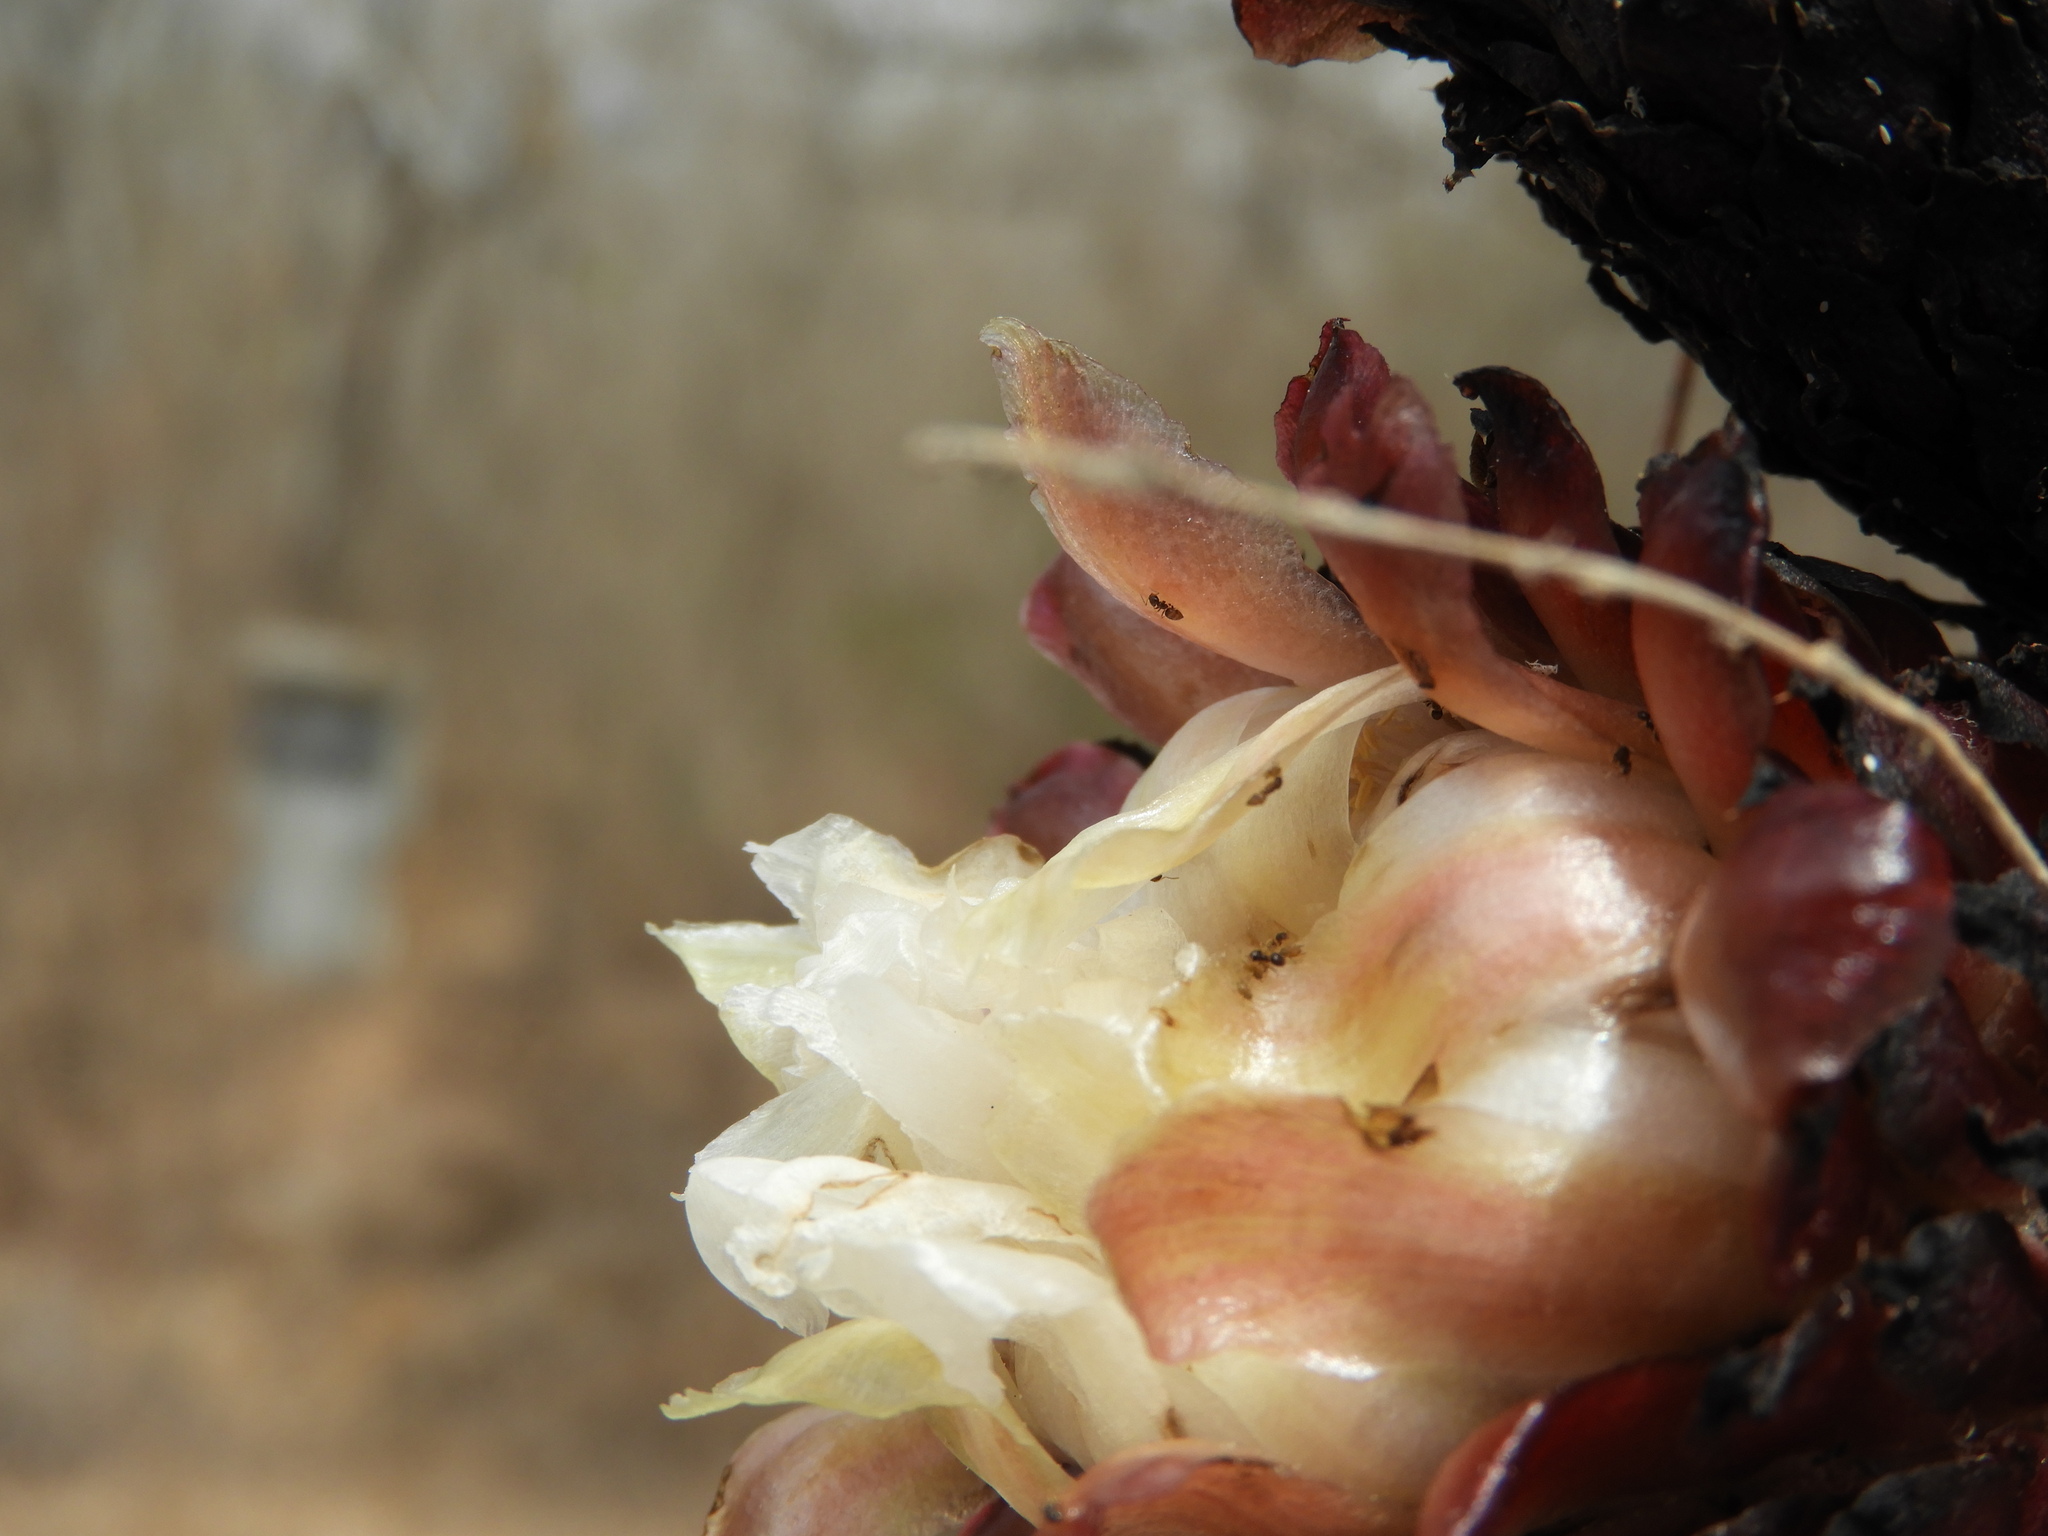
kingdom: Plantae
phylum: Tracheophyta
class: Magnoliopsida
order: Caryophyllales
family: Cactaceae
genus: Pachycereus
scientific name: Pachycereus pecten-aboriginum
